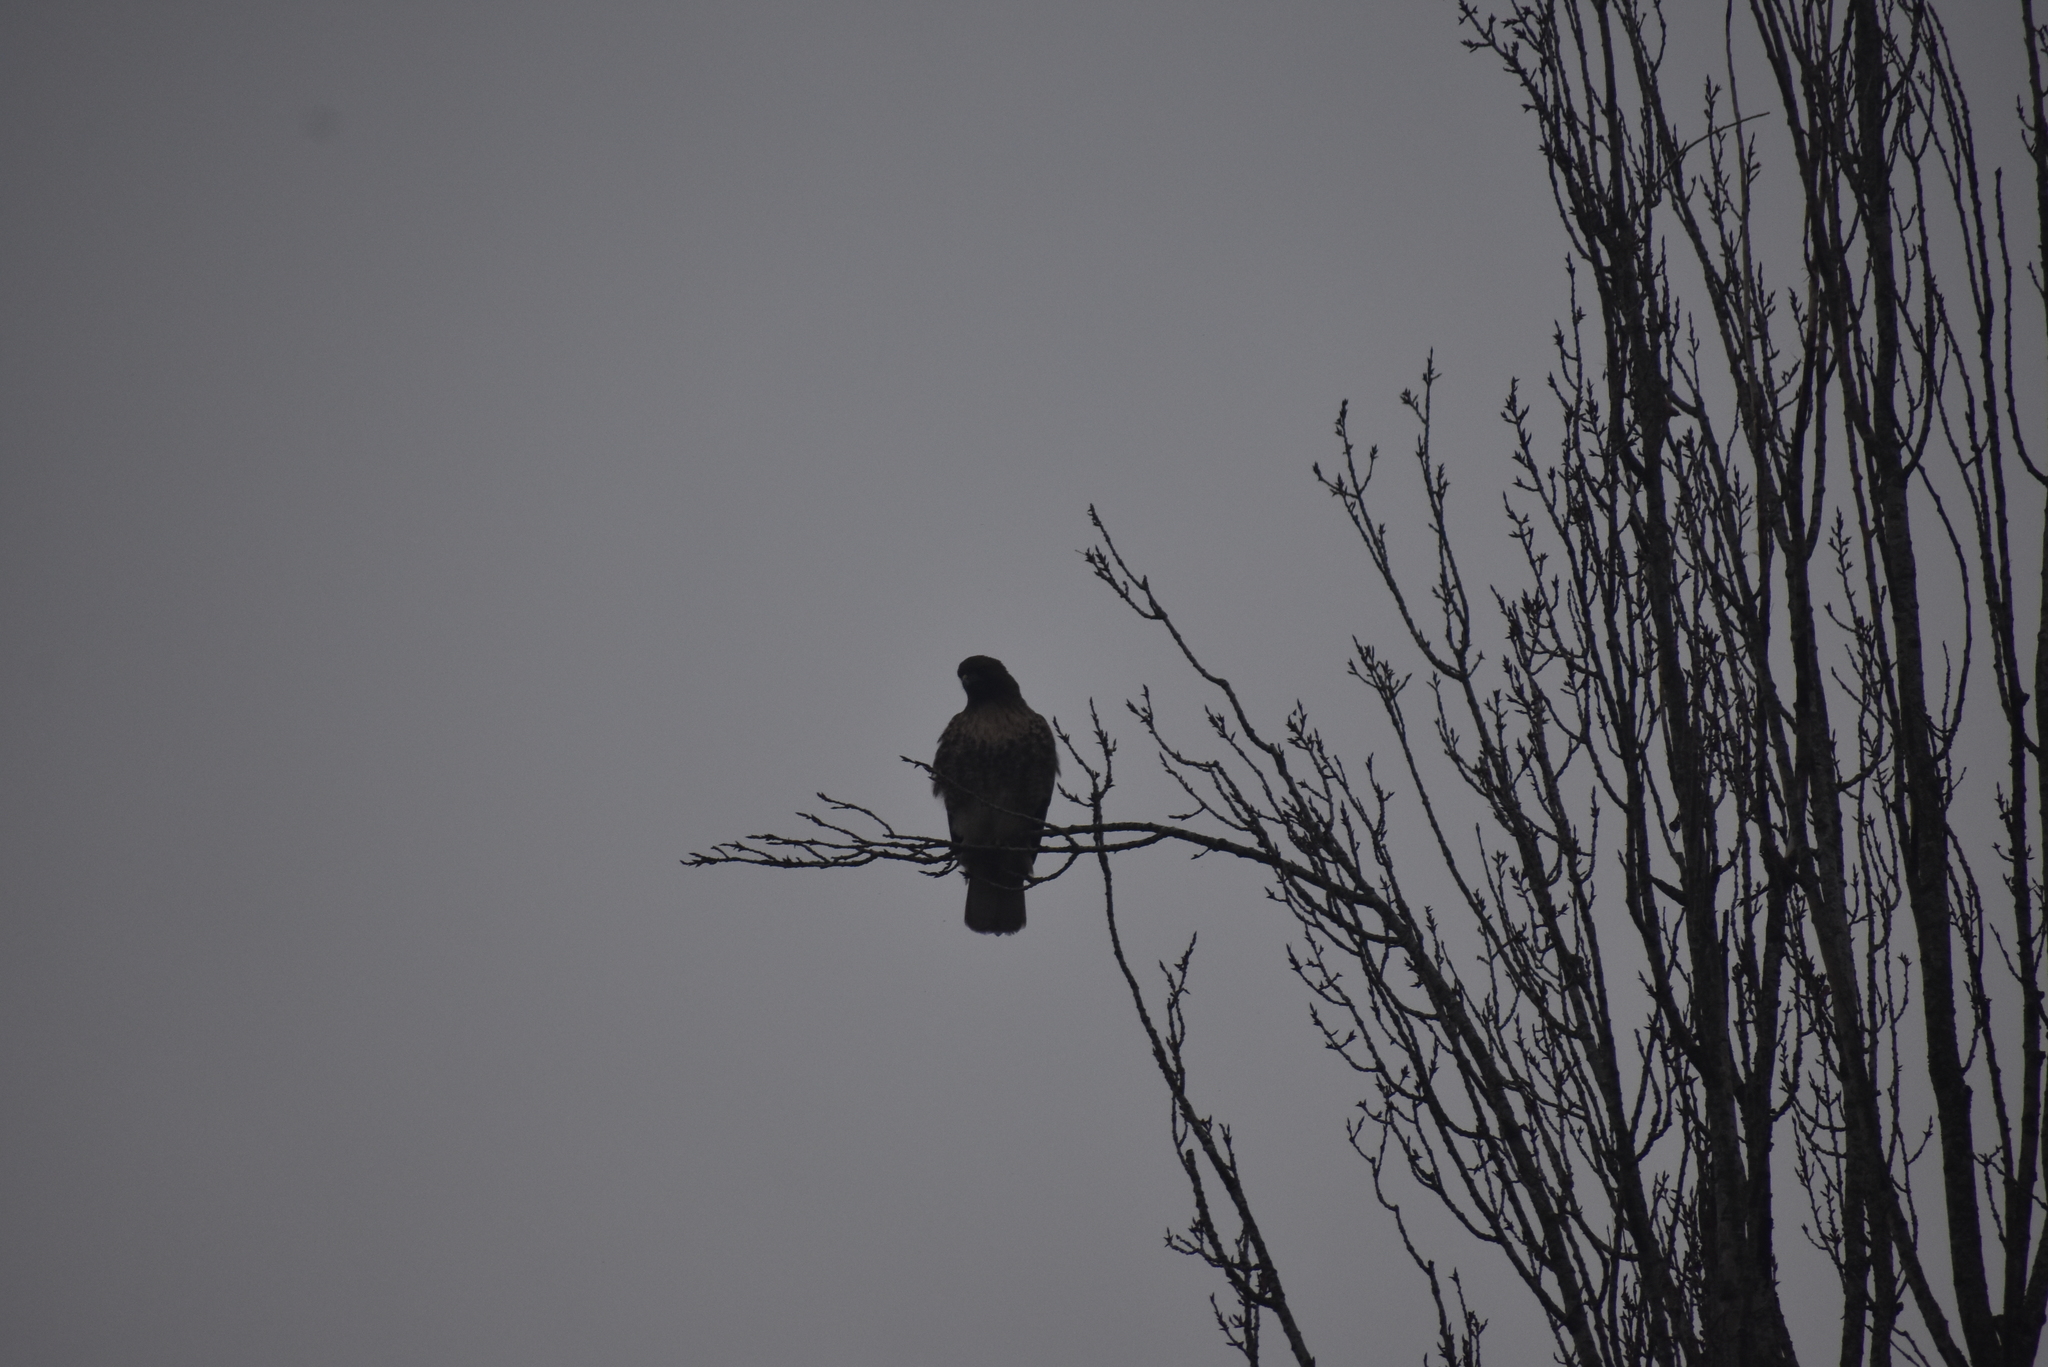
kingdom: Animalia
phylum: Chordata
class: Aves
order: Accipitriformes
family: Accipitridae
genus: Buteo
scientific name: Buteo jamaicensis
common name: Red-tailed hawk
